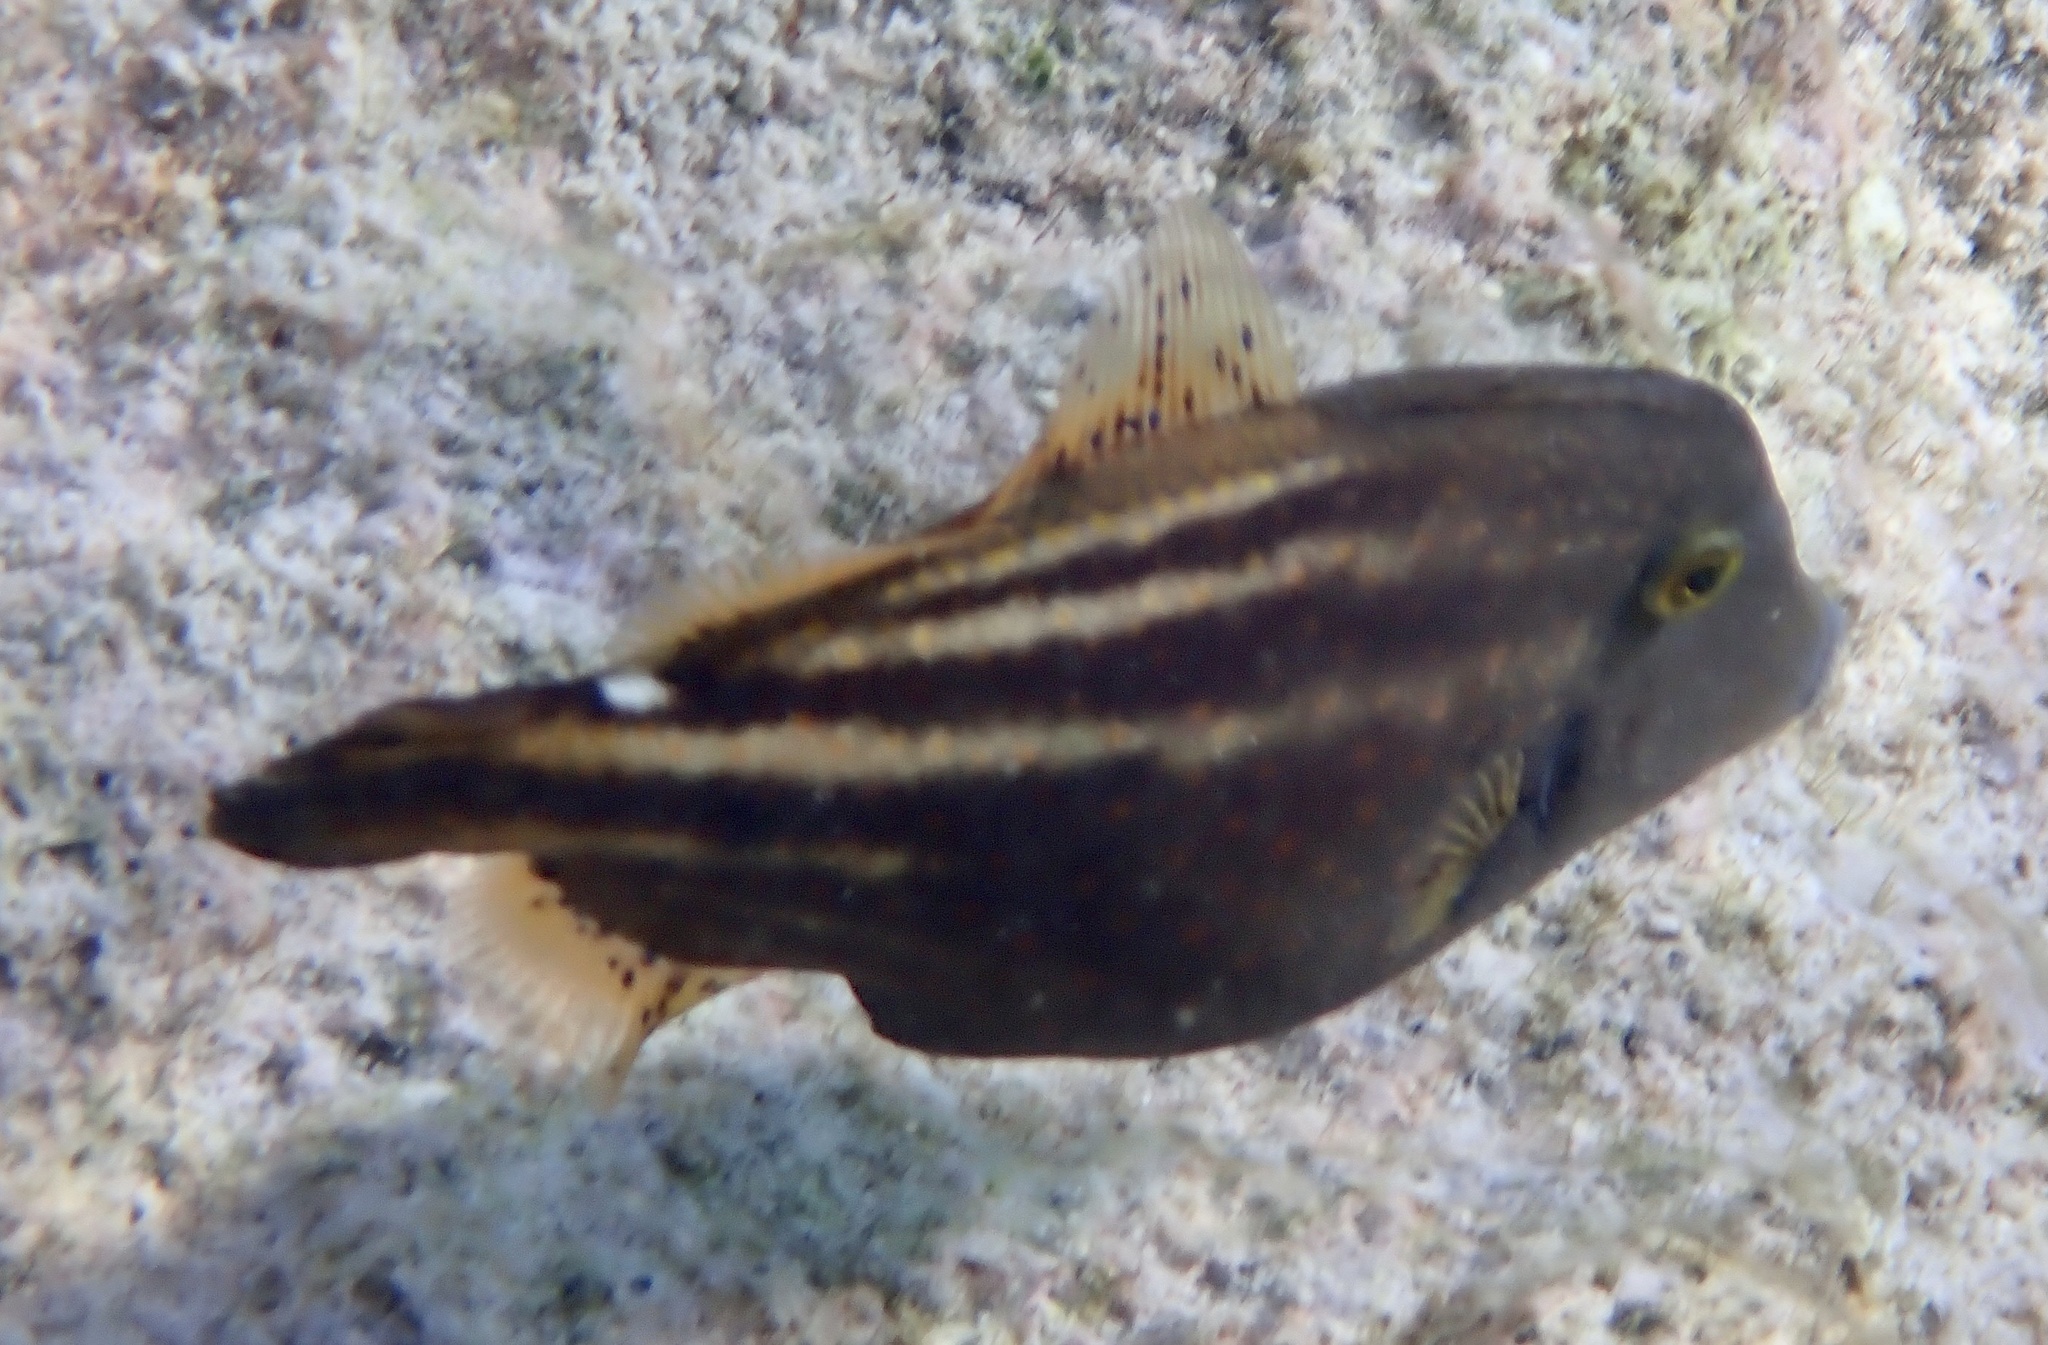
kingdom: Animalia
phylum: Chordata
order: Tetraodontiformes
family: Monacanthidae
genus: Cantherhines
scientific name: Cantherhines pullus
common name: Orangespotted filefish
